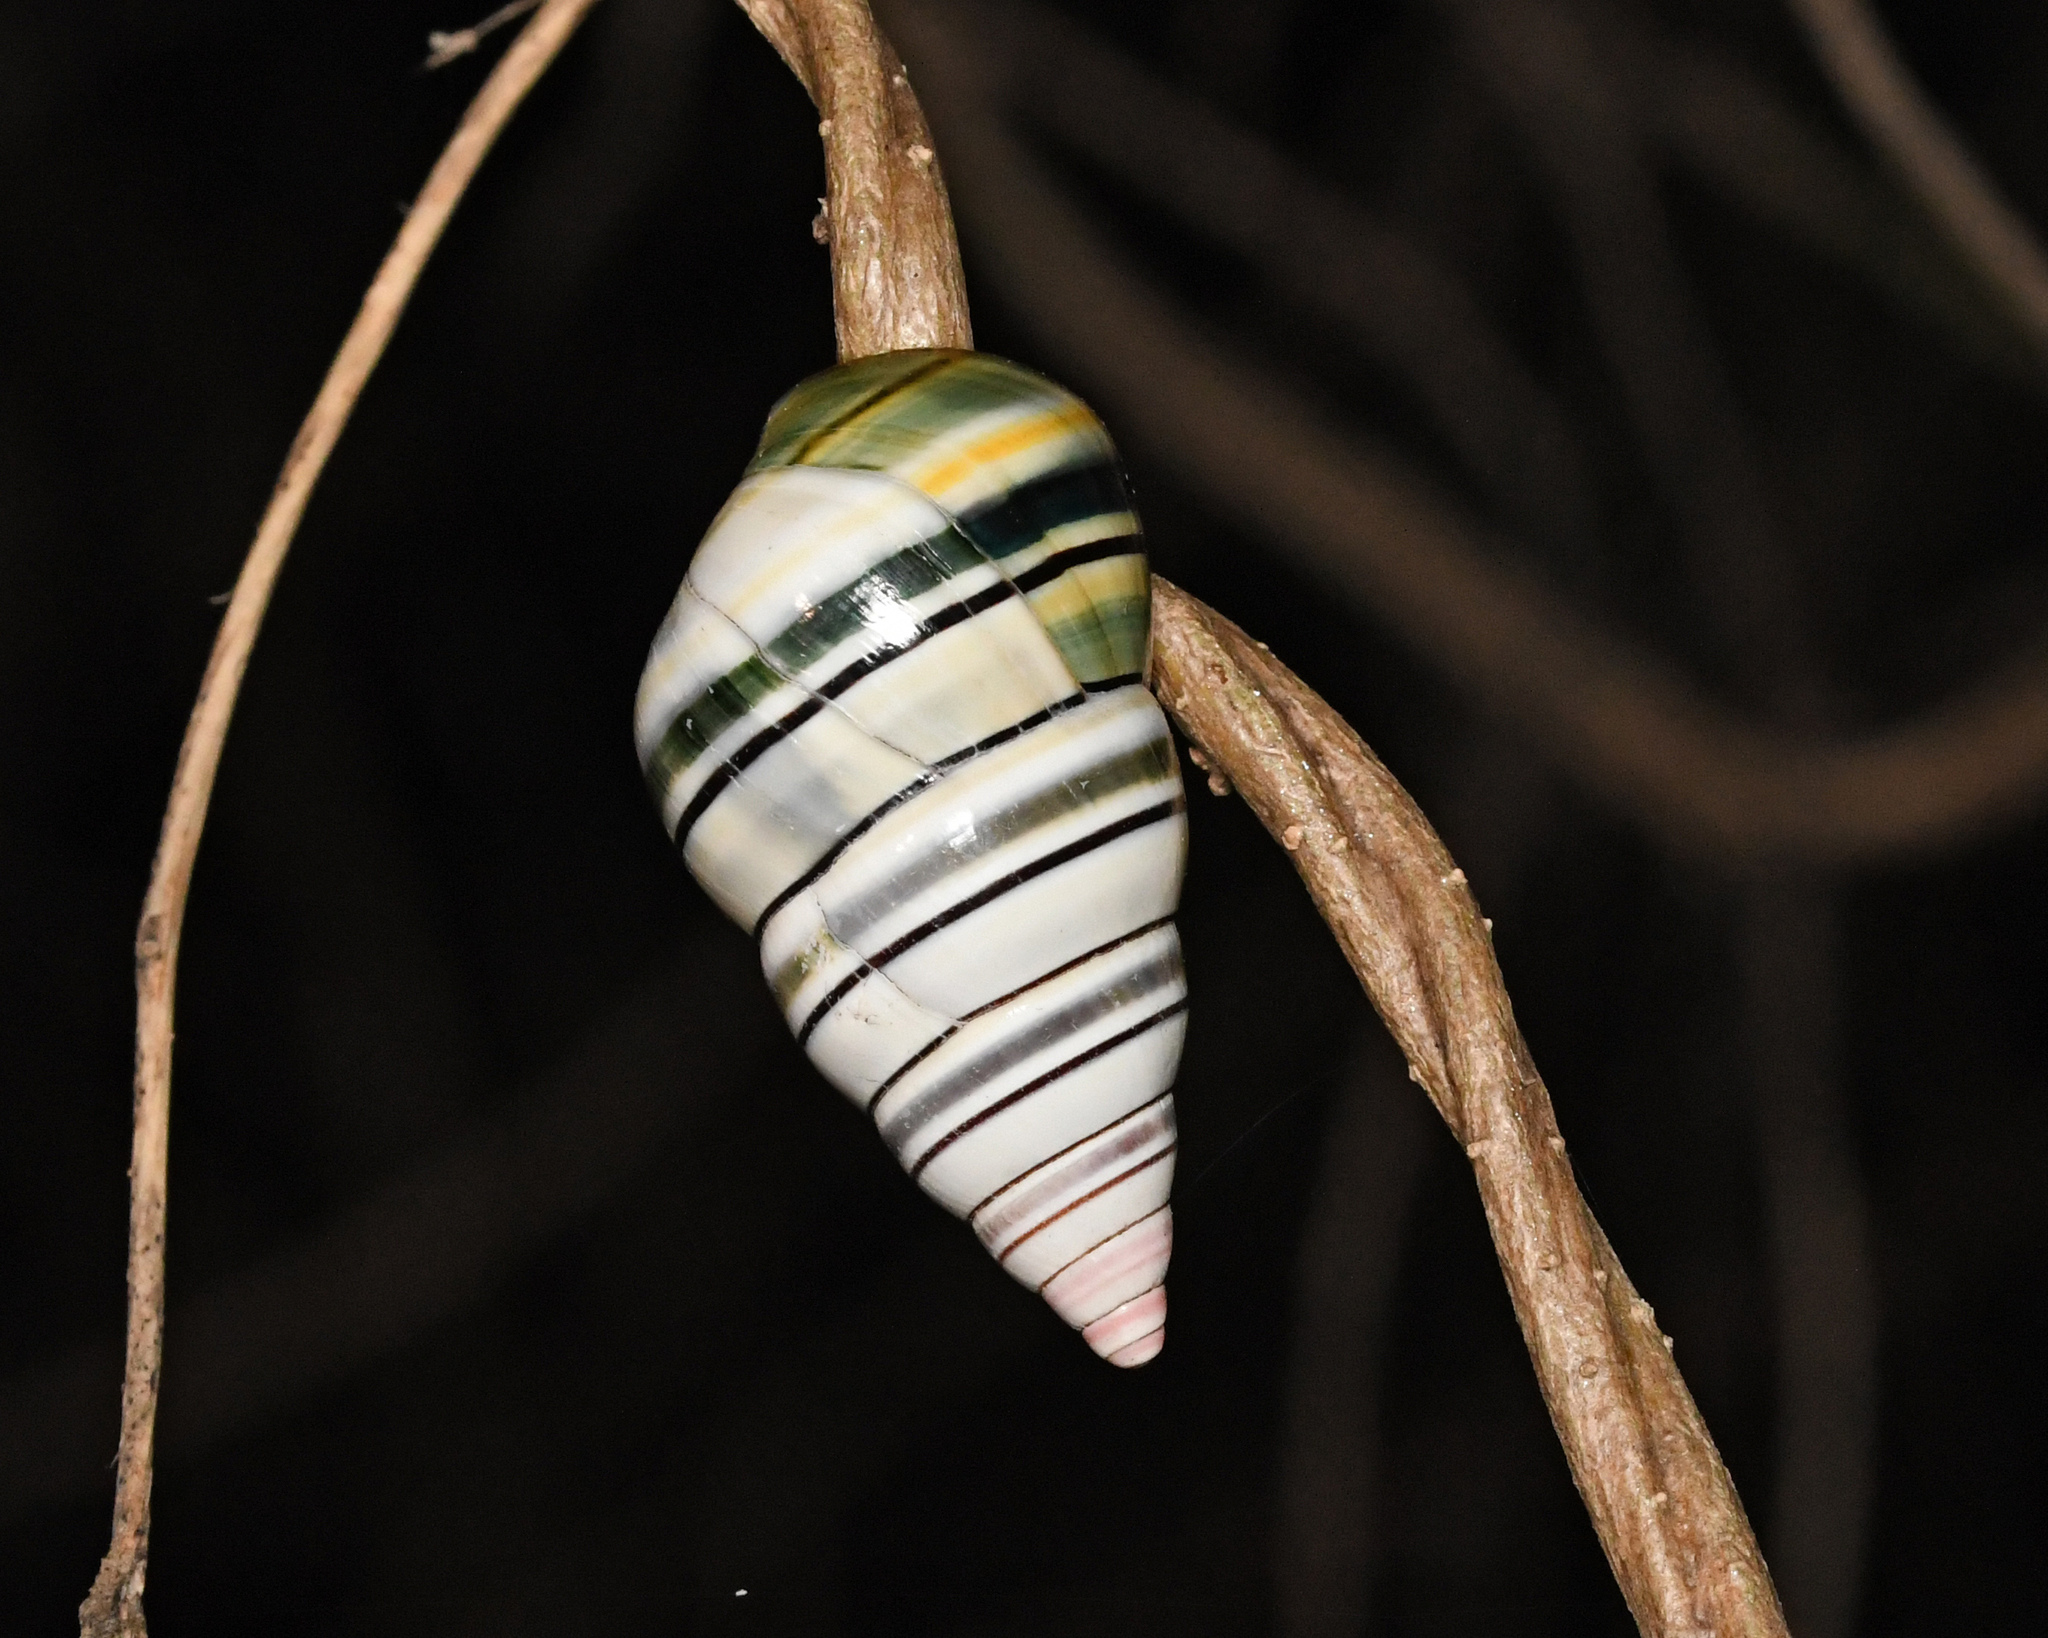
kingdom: Animalia
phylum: Mollusca
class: Gastropoda
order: Stylommatophora
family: Orthalicidae
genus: Liguus
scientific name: Liguus virgineus
